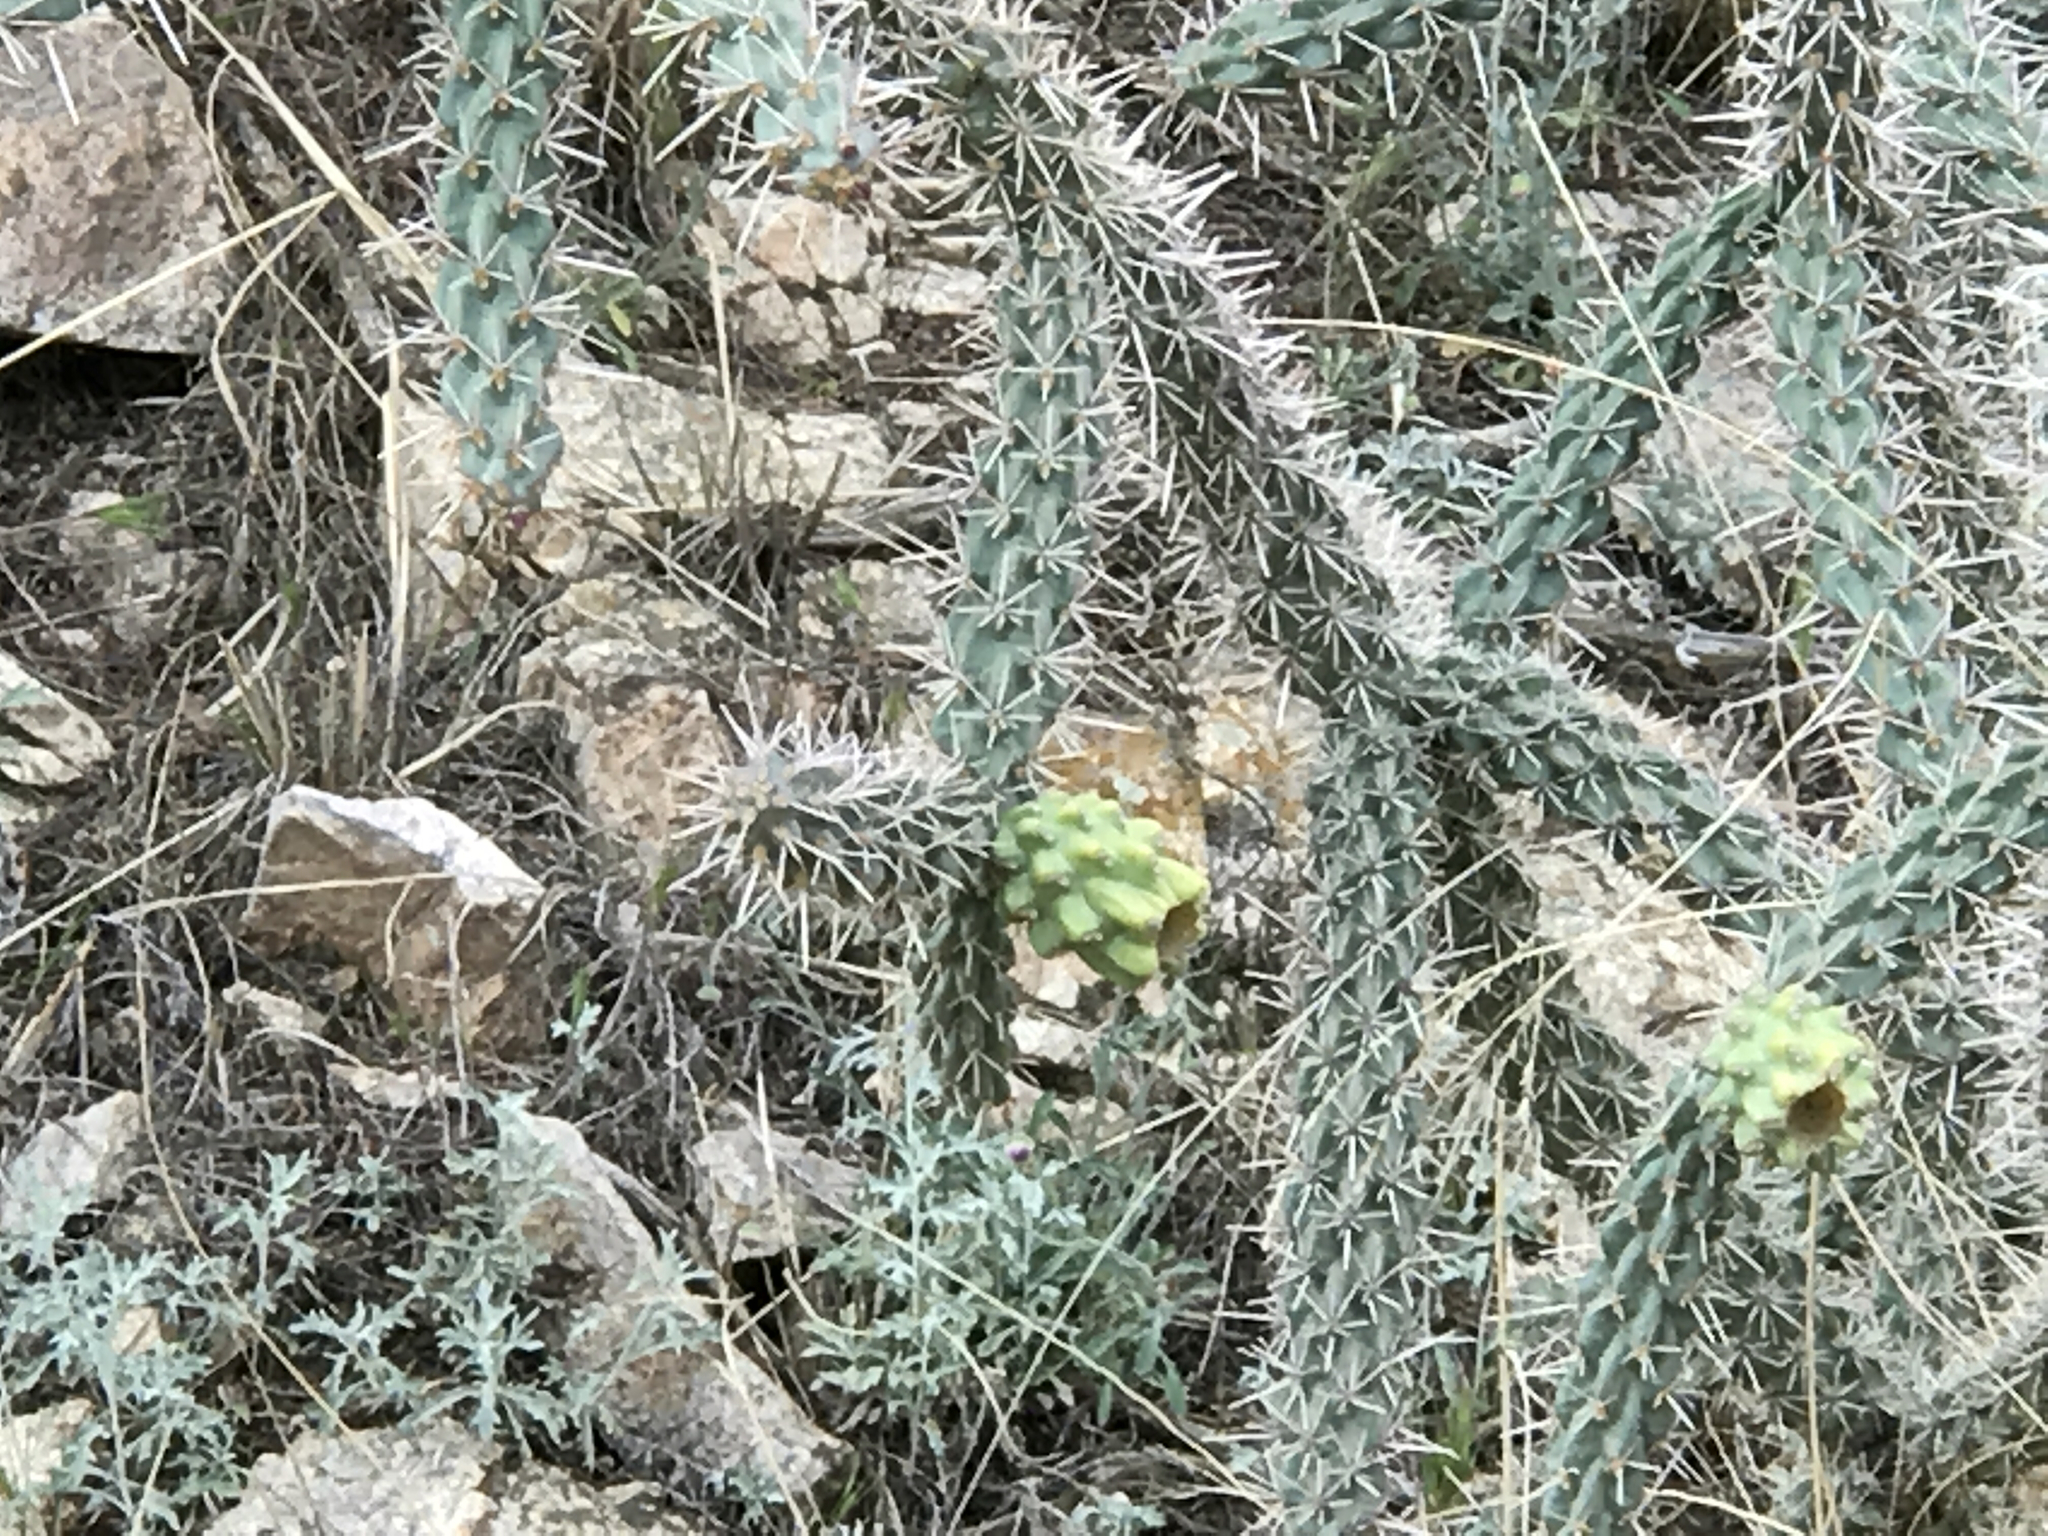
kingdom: Plantae
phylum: Tracheophyta
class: Magnoliopsida
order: Caryophyllales
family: Cactaceae
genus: Cylindropuntia
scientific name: Cylindropuntia imbricata
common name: Candelabrum cactus
